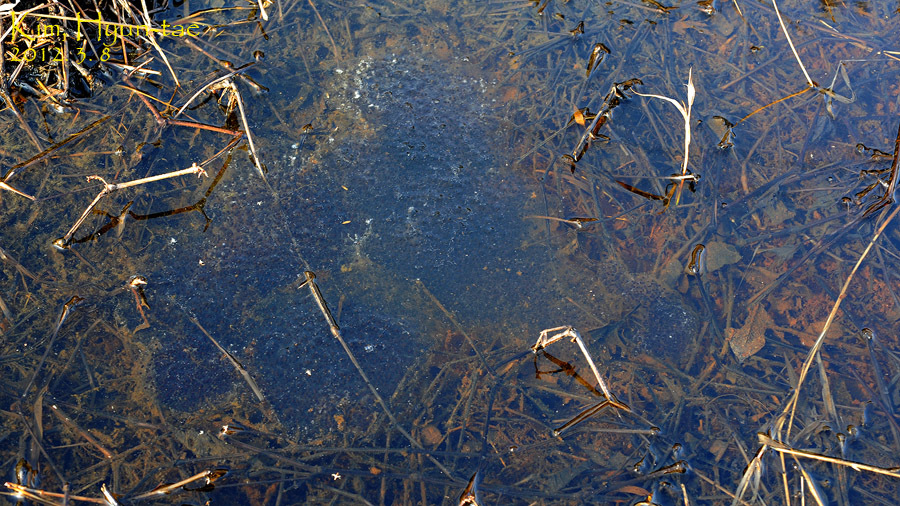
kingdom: Animalia
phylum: Chordata
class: Amphibia
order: Anura
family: Ranidae
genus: Rana
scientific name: Rana coreana
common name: Korean brown frog
